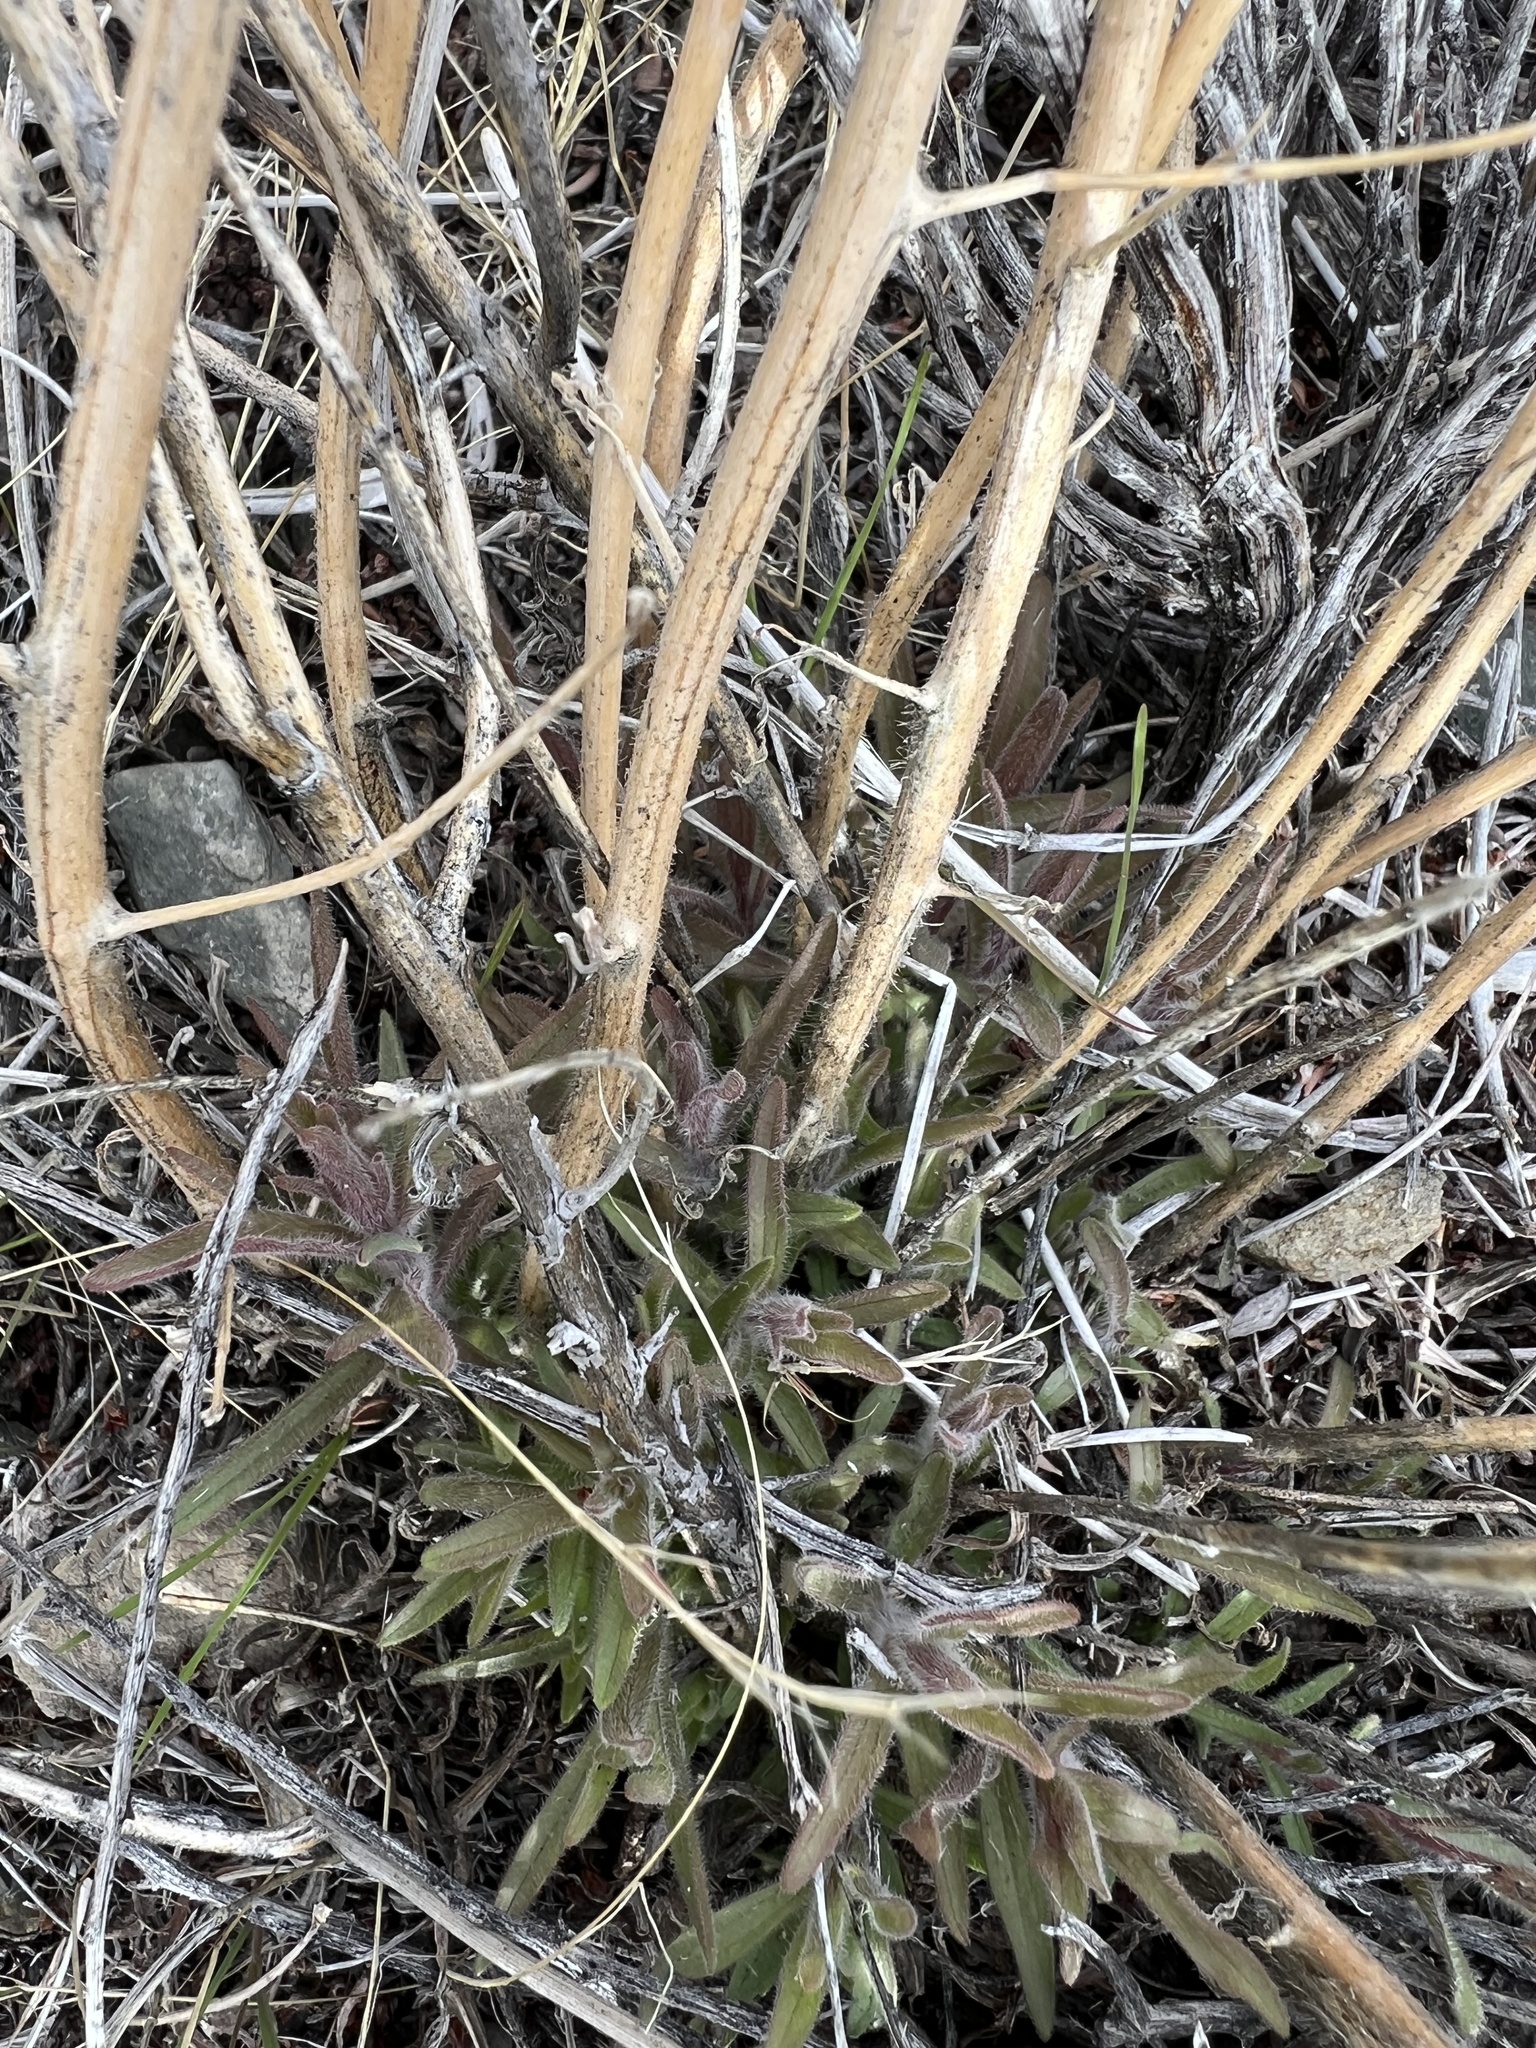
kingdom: Plantae
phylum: Tracheophyta
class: Magnoliopsida
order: Lamiales
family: Orobanchaceae
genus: Castilleja
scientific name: Castilleja chromosa
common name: Desert paintbrush
